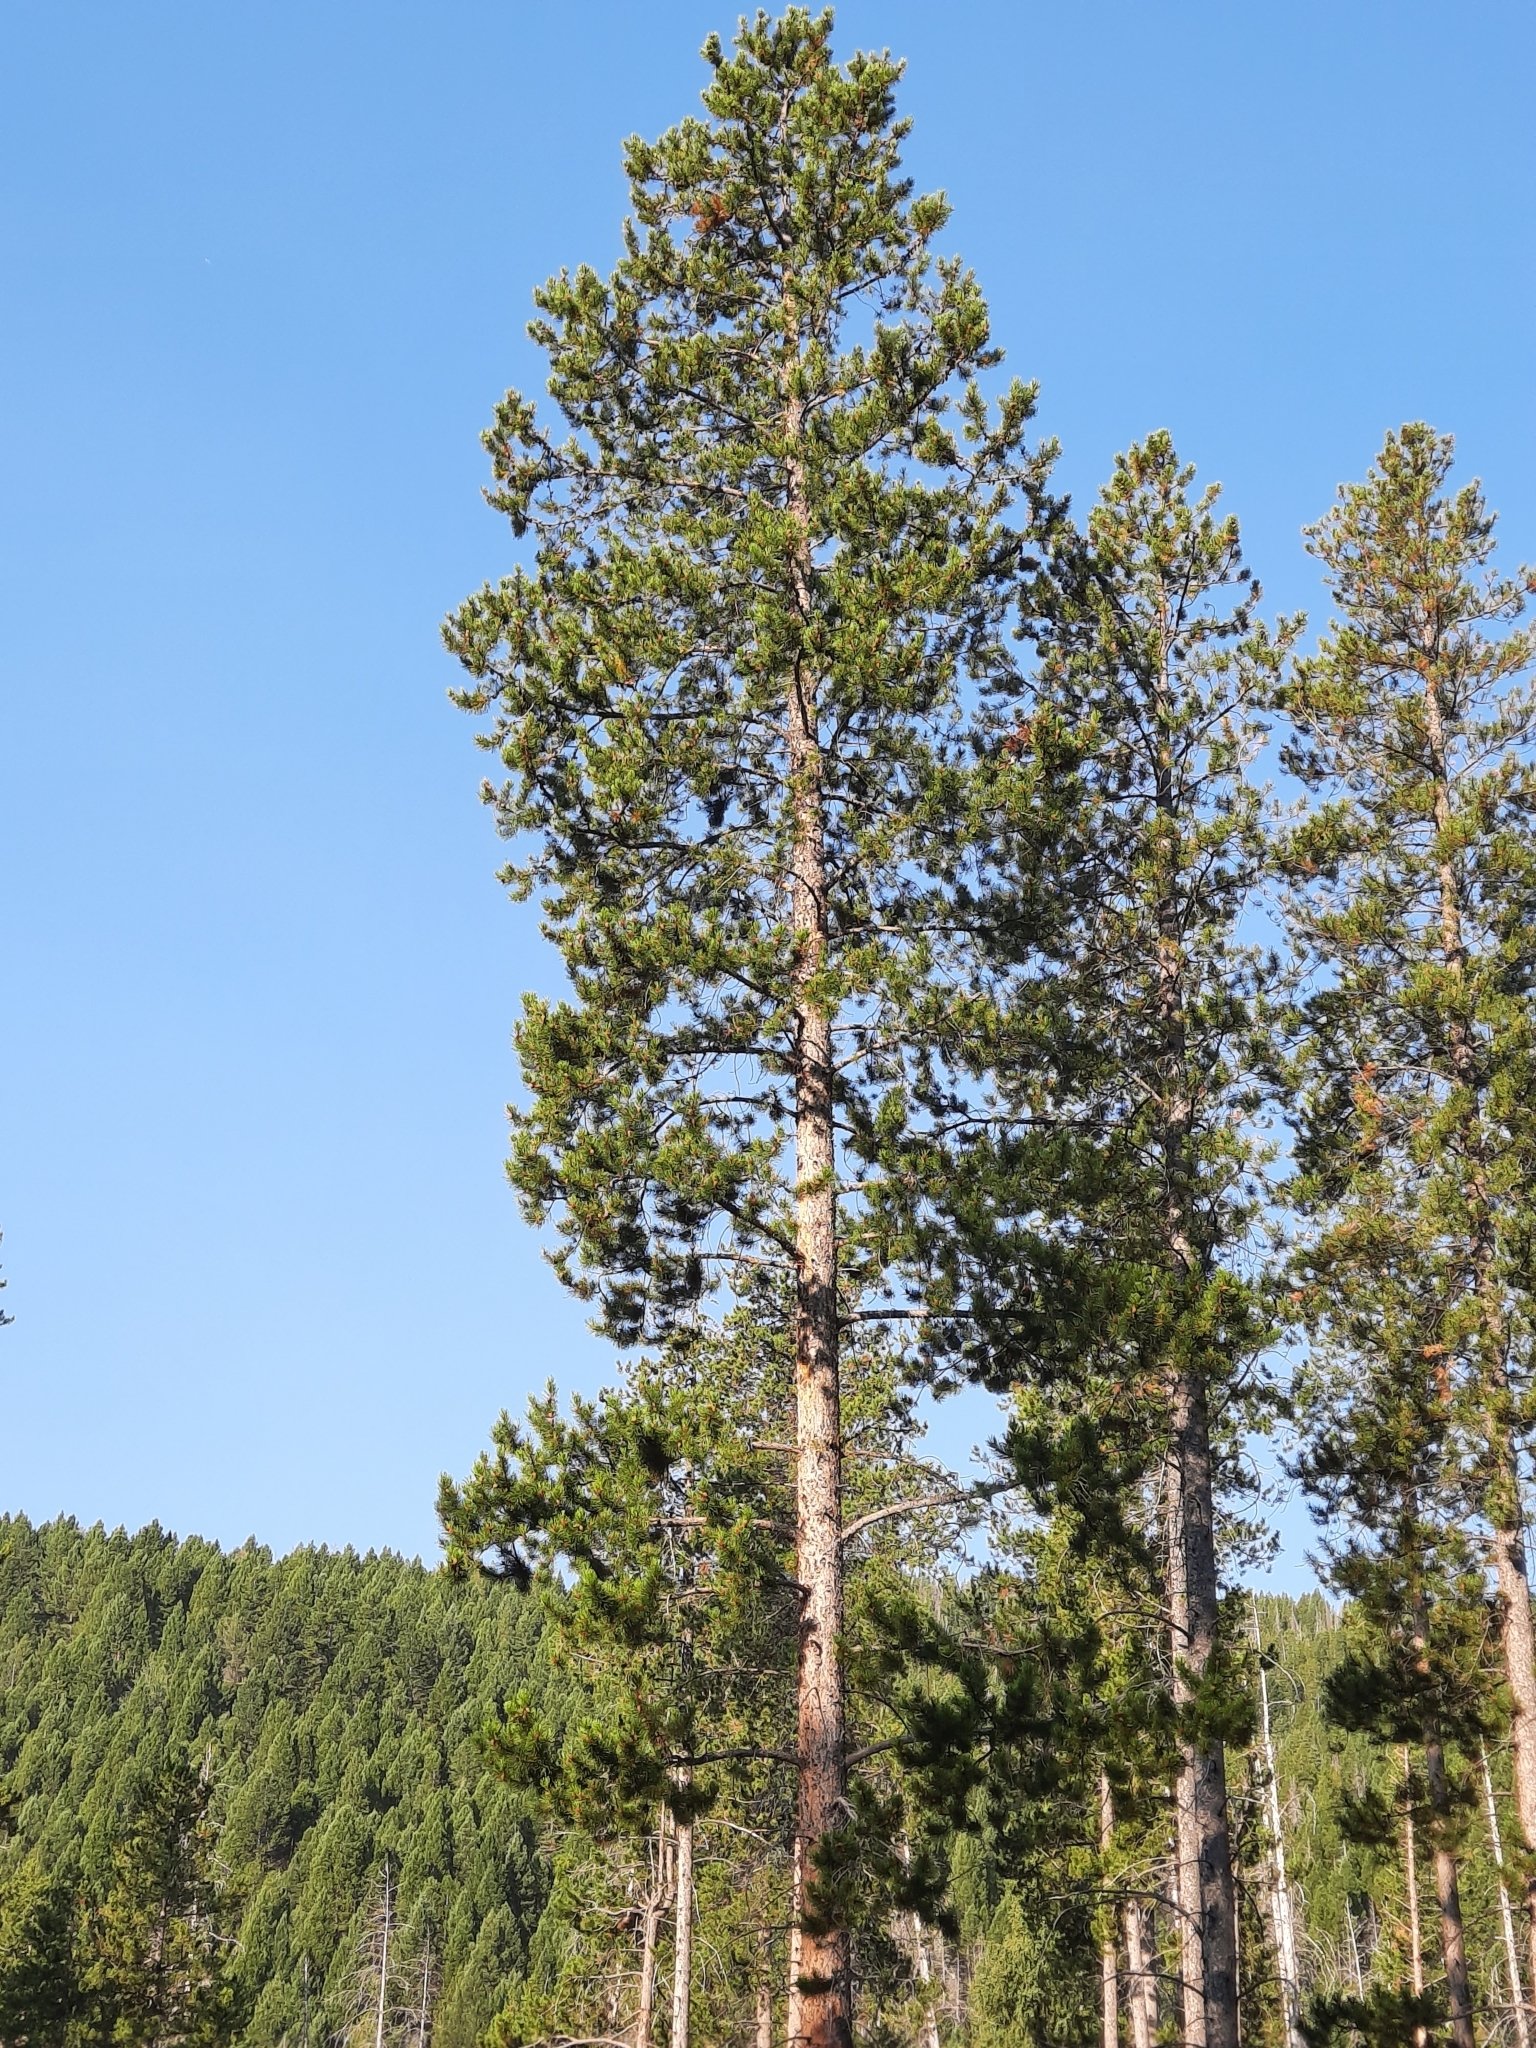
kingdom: Plantae
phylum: Tracheophyta
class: Pinopsida
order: Pinales
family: Pinaceae
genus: Pinus
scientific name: Pinus contorta
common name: Lodgepole pine
